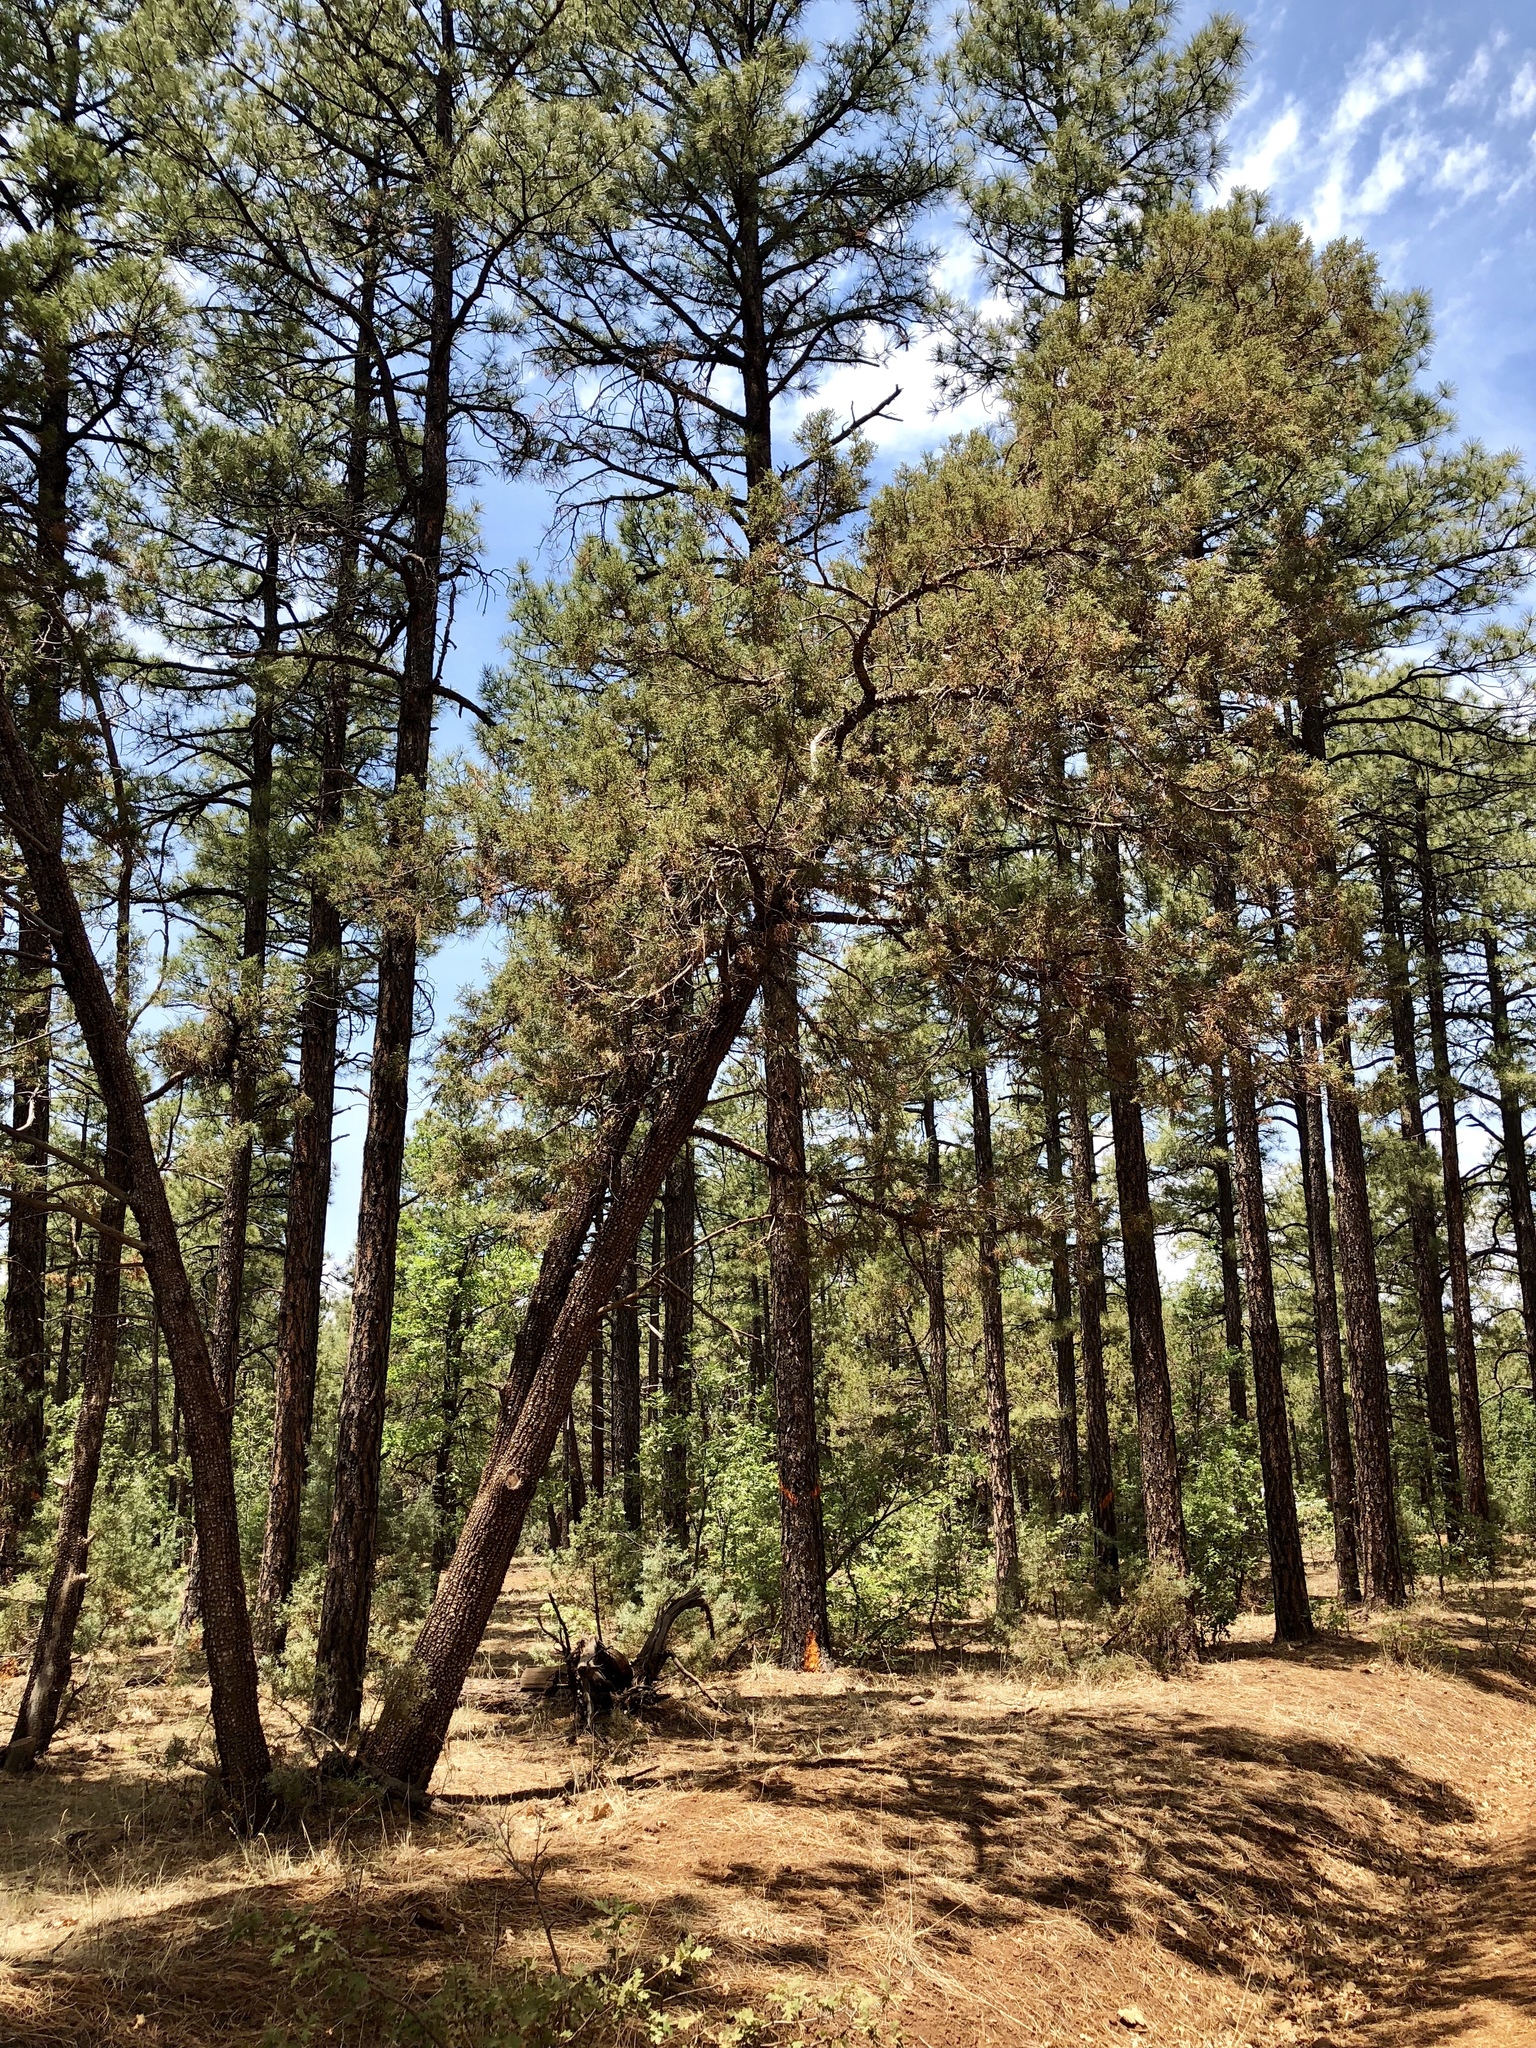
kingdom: Plantae
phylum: Tracheophyta
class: Pinopsida
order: Pinales
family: Cupressaceae
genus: Juniperus
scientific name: Juniperus deppeana
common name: Alligator juniper
